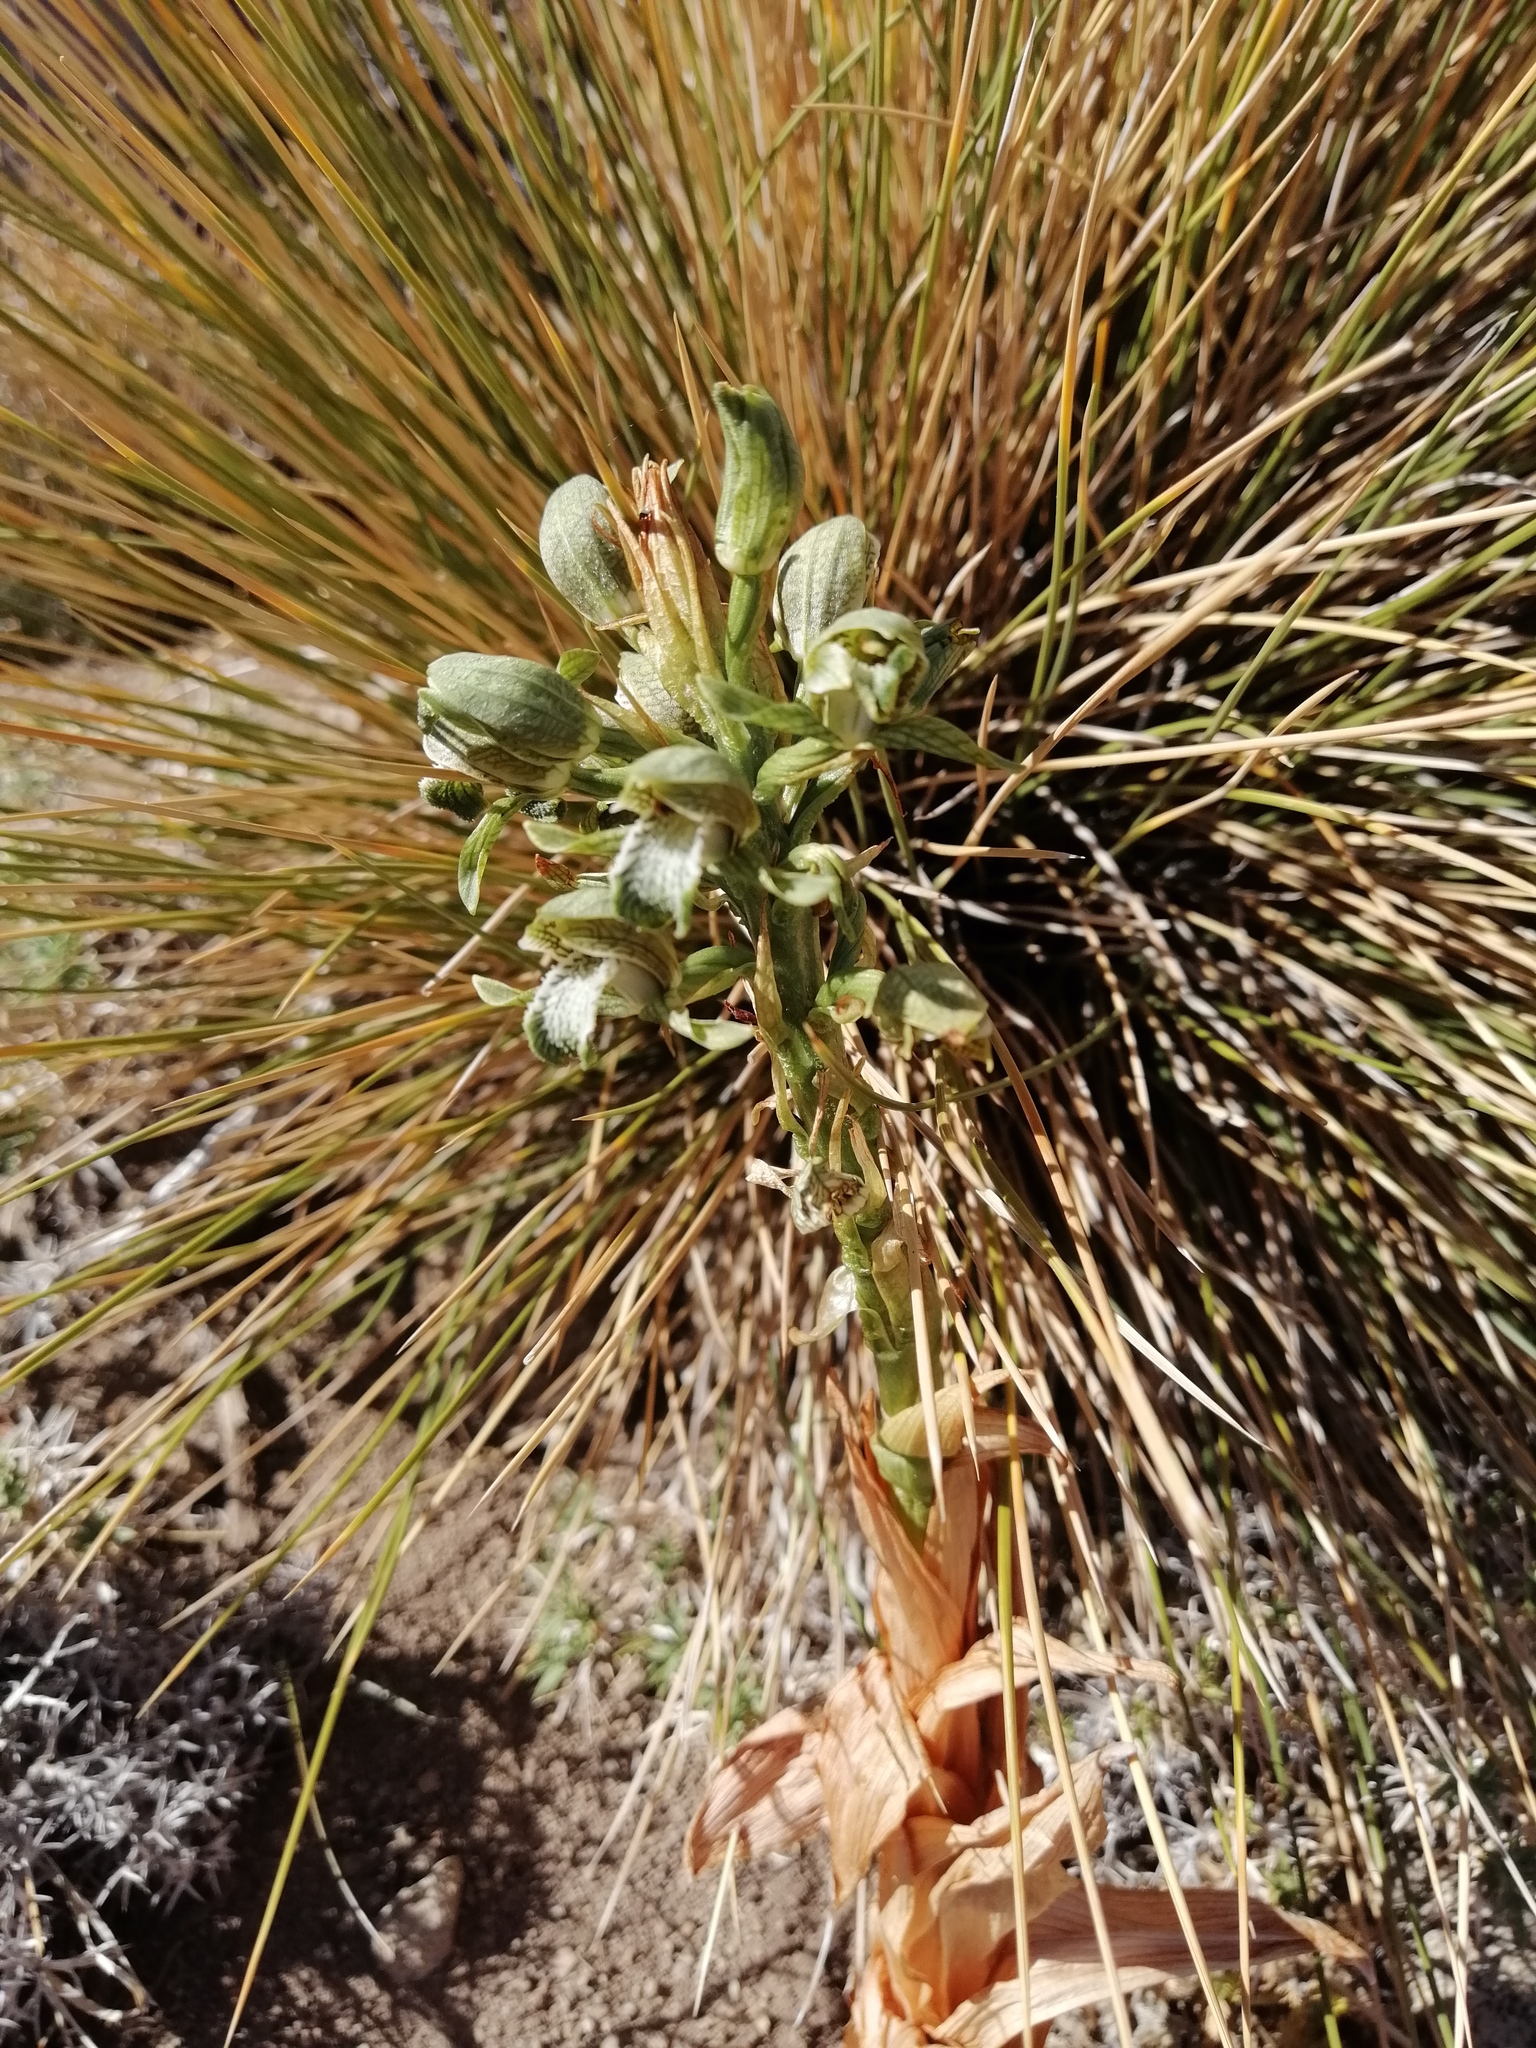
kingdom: Plantae
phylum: Tracheophyta
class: Liliopsida
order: Asparagales
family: Orchidaceae
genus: Chloraea
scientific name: Chloraea cylindrostachya
